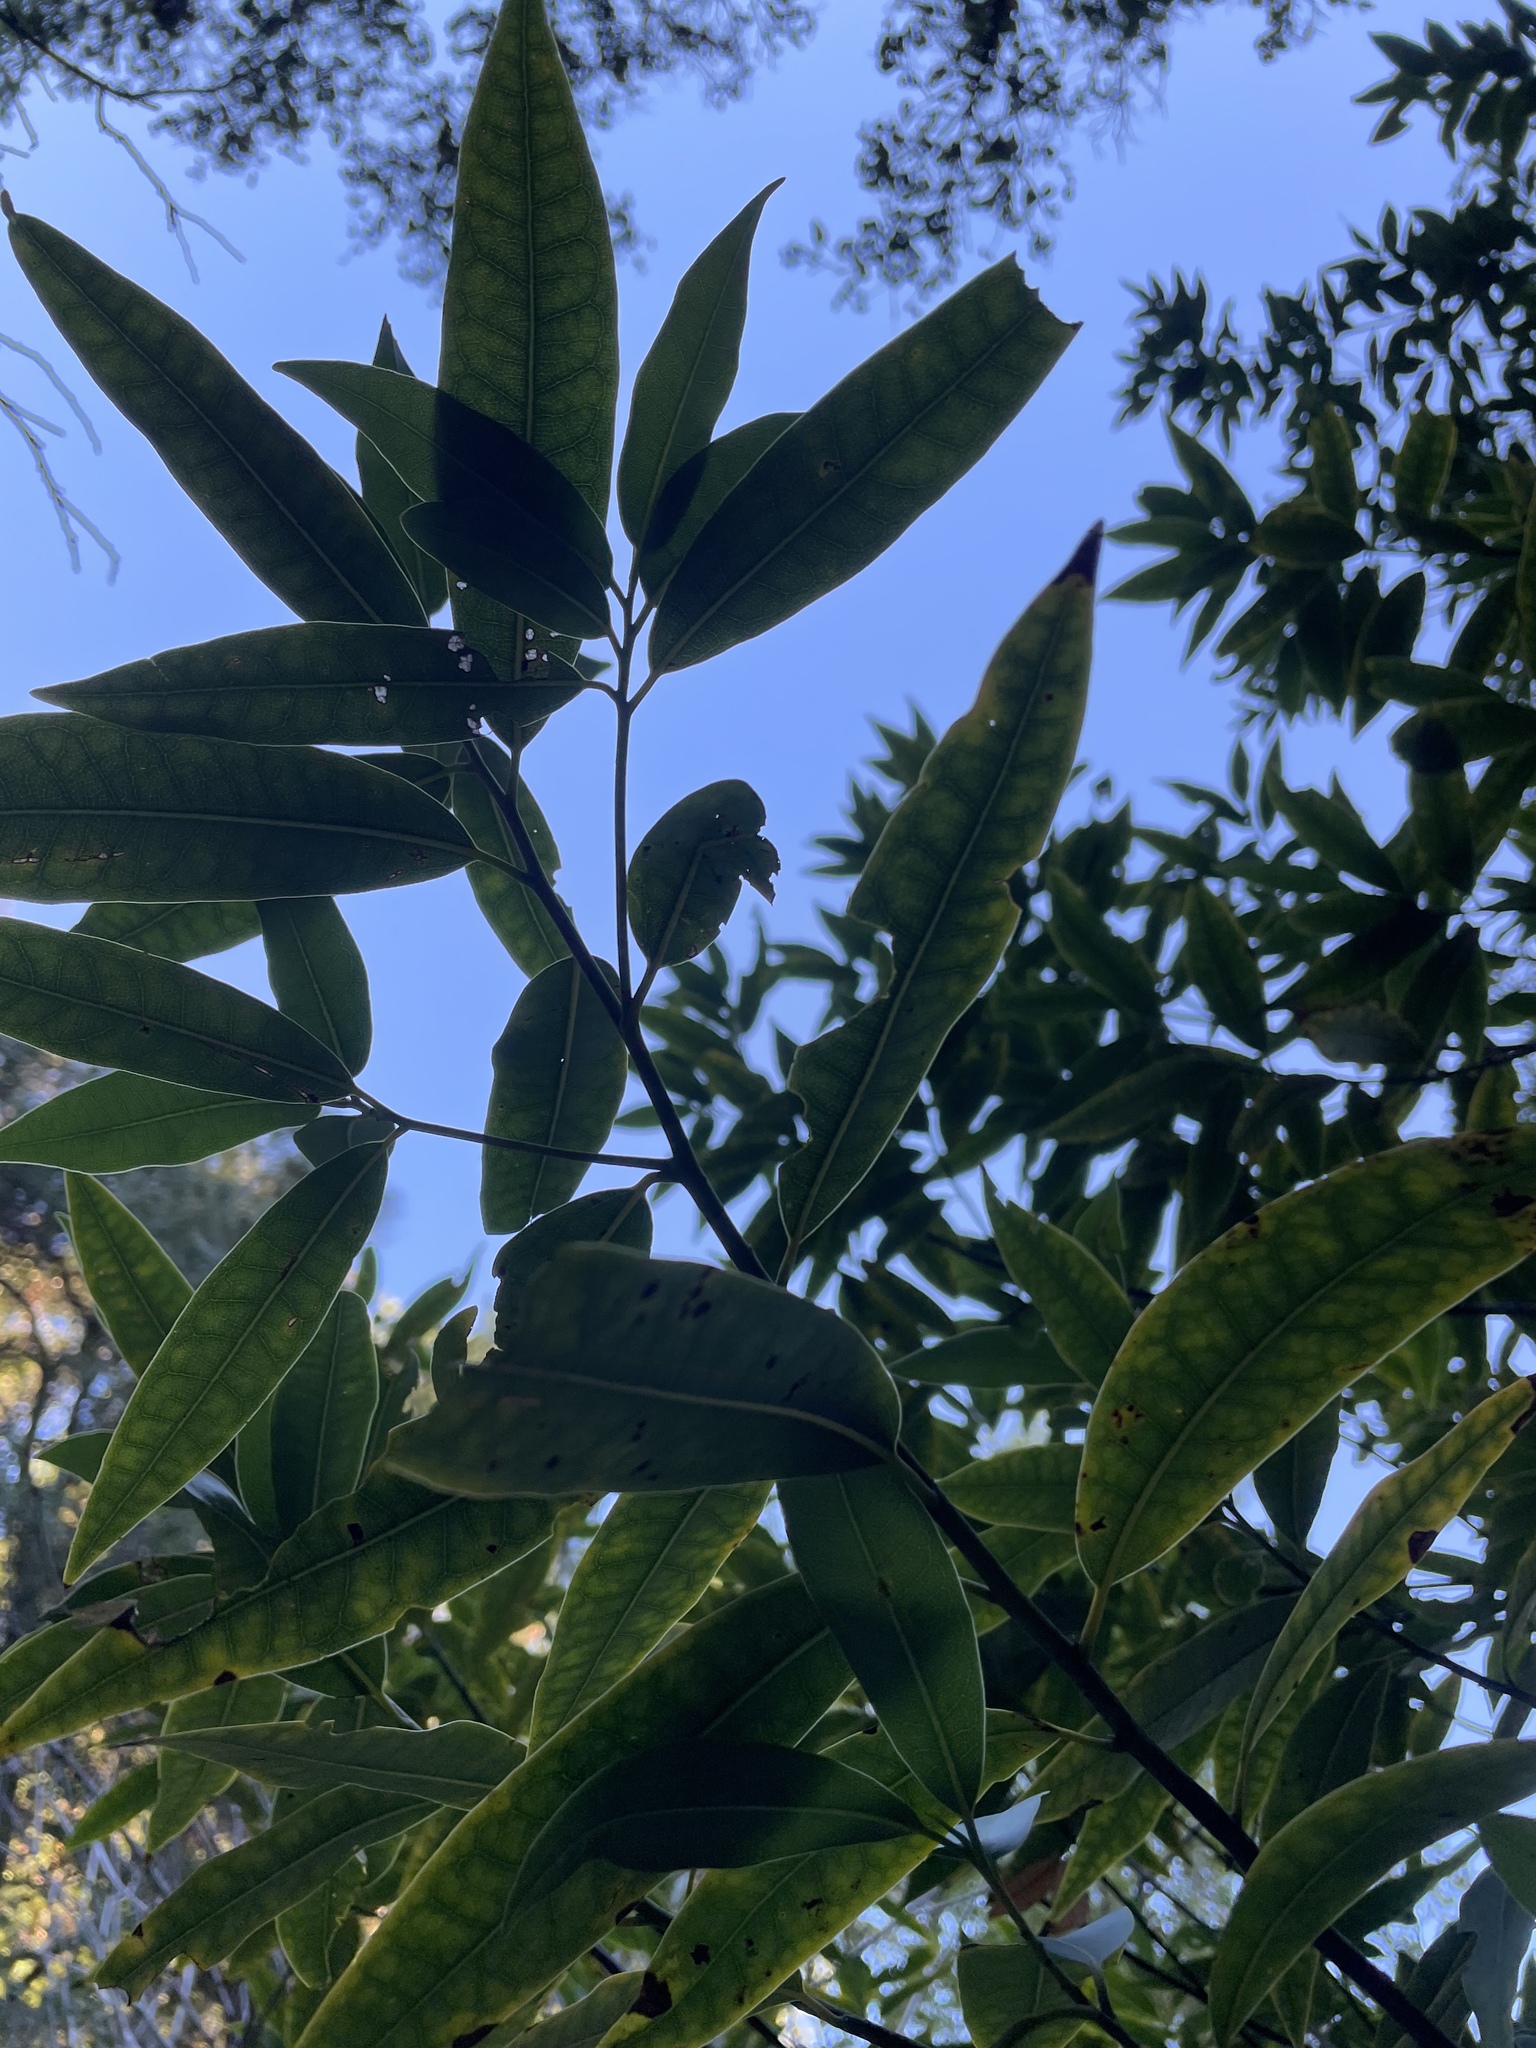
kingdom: Plantae
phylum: Tracheophyta
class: Magnoliopsida
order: Laurales
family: Lauraceae
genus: Umbellularia
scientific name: Umbellularia californica
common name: California bay
